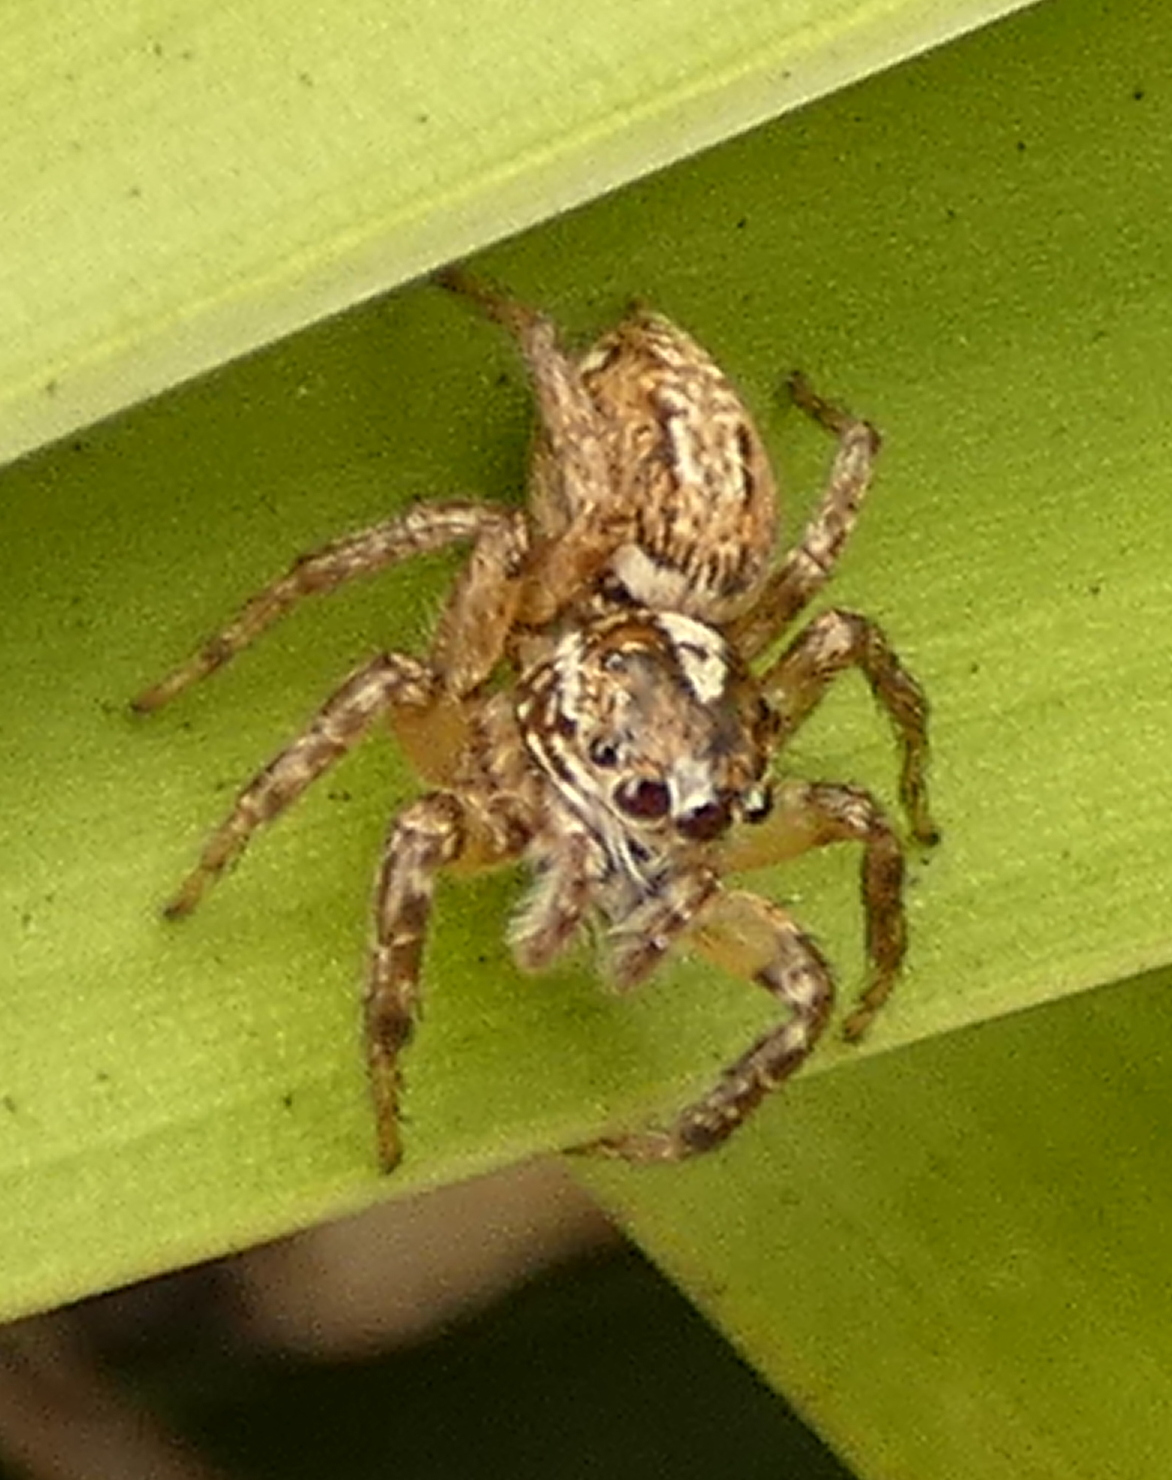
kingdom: Animalia
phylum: Arthropoda
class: Arachnida
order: Araneae
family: Salticidae
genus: Leptofreya
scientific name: Leptofreya ambigua
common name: Jumping spider
